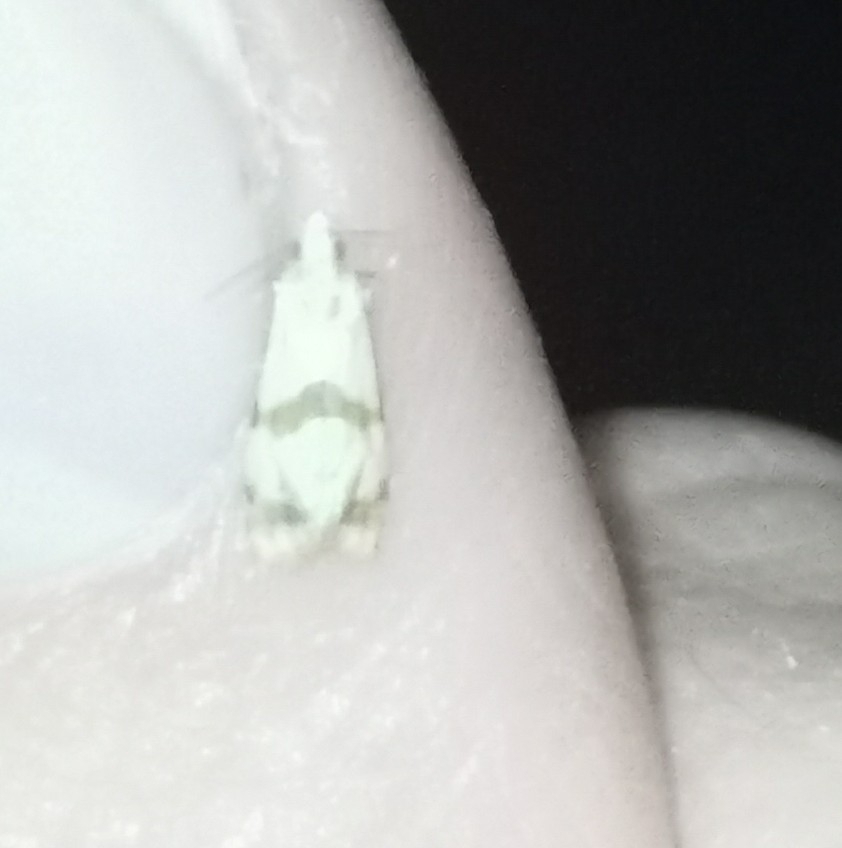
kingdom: Animalia
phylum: Arthropoda
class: Insecta
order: Lepidoptera
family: Tortricidae
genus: Phalonidia
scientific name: Phalonidia contractana
